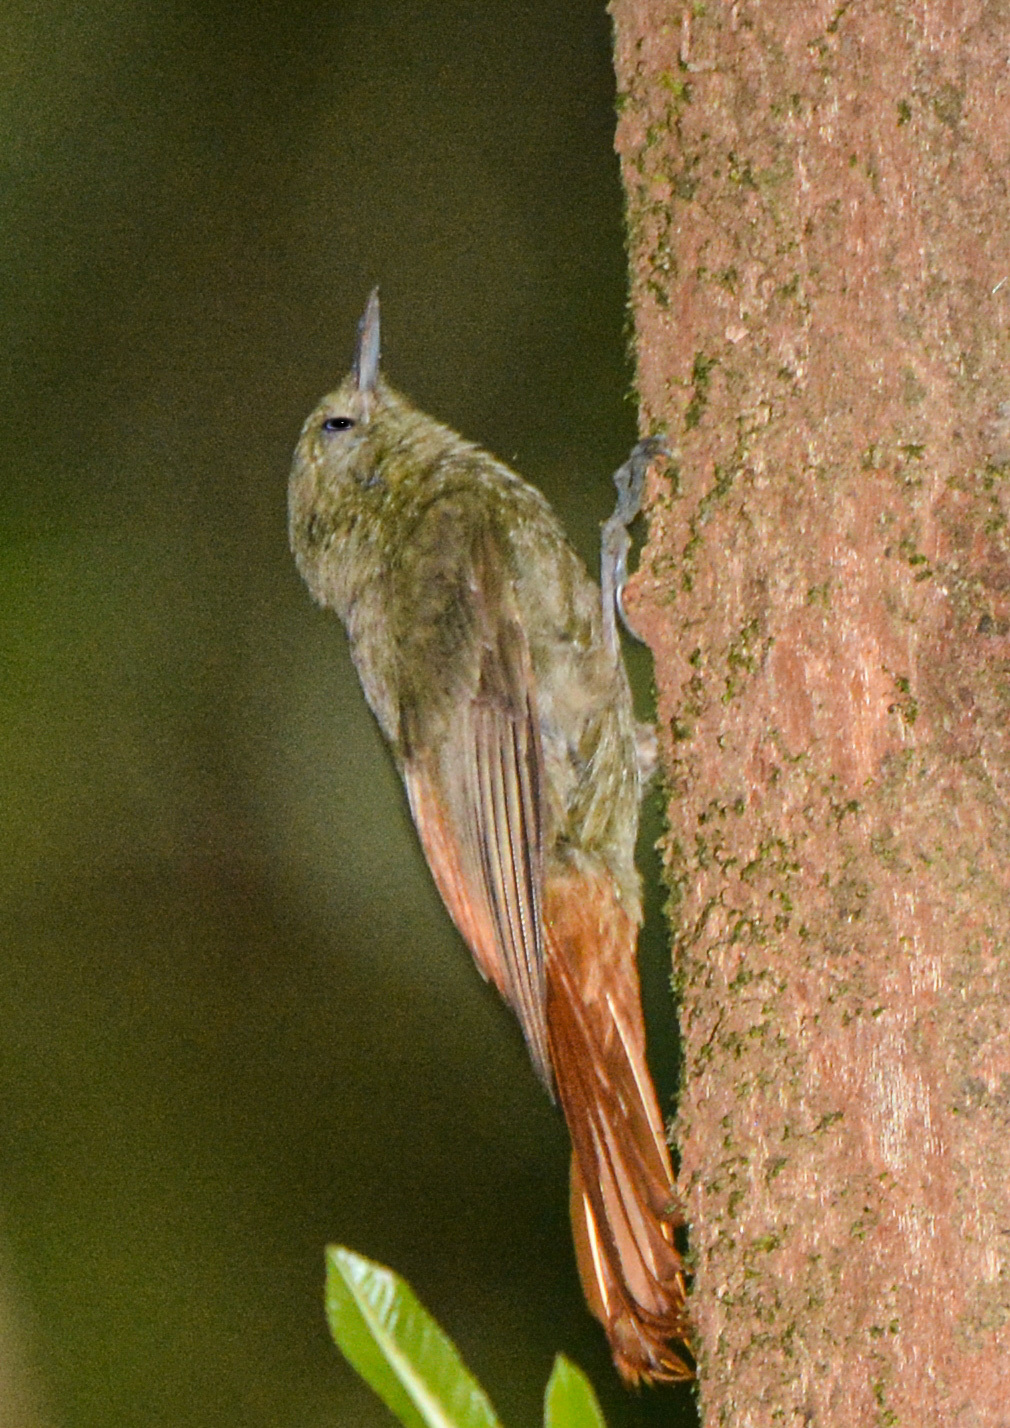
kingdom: Animalia
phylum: Chordata
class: Aves
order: Passeriformes
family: Furnariidae
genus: Sittasomus
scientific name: Sittasomus griseicapillus
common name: Olivaceous woodcreeper
